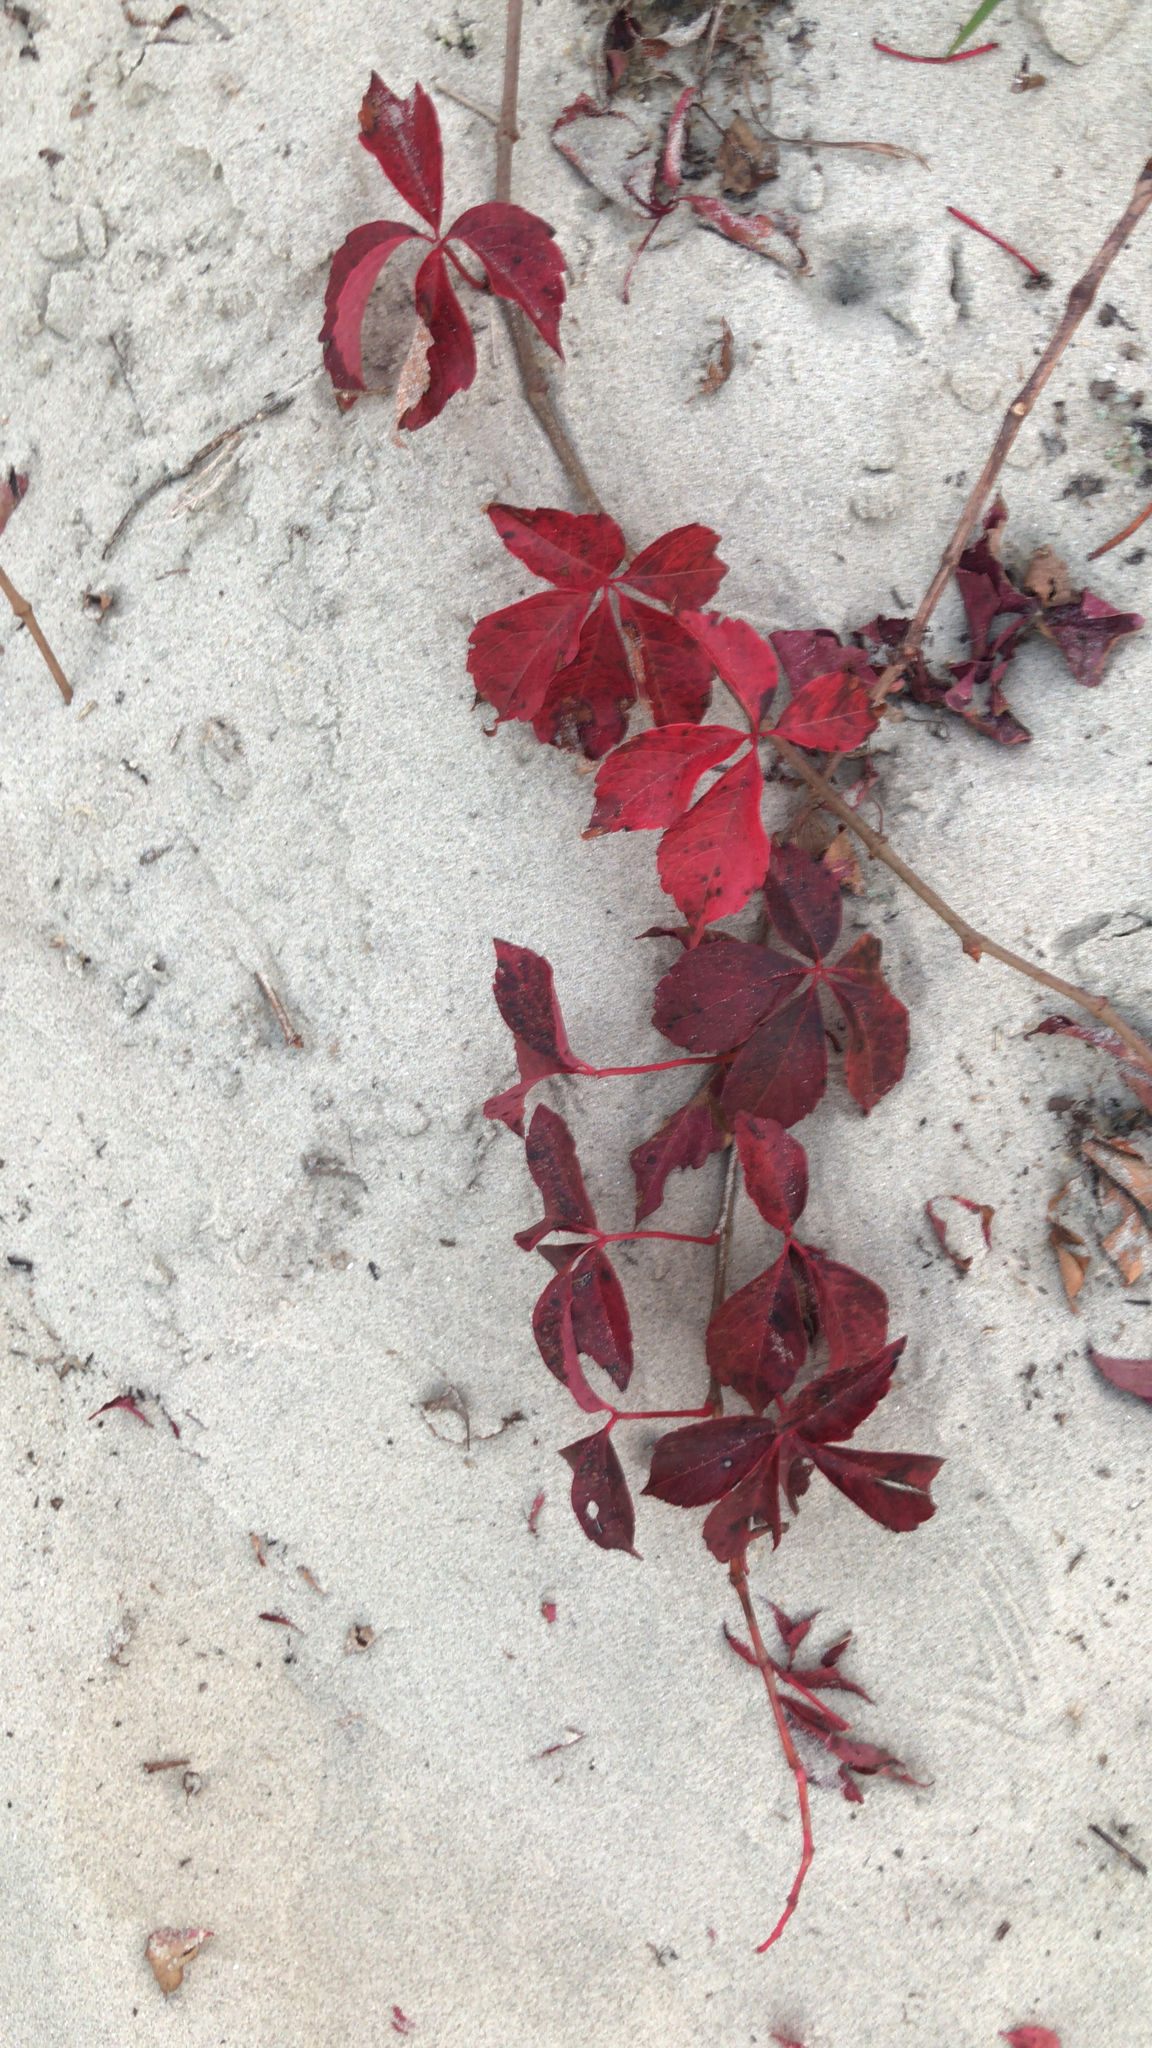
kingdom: Plantae
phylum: Tracheophyta
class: Magnoliopsida
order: Vitales
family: Vitaceae
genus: Parthenocissus
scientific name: Parthenocissus quinquefolia
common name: Virginia-creeper
